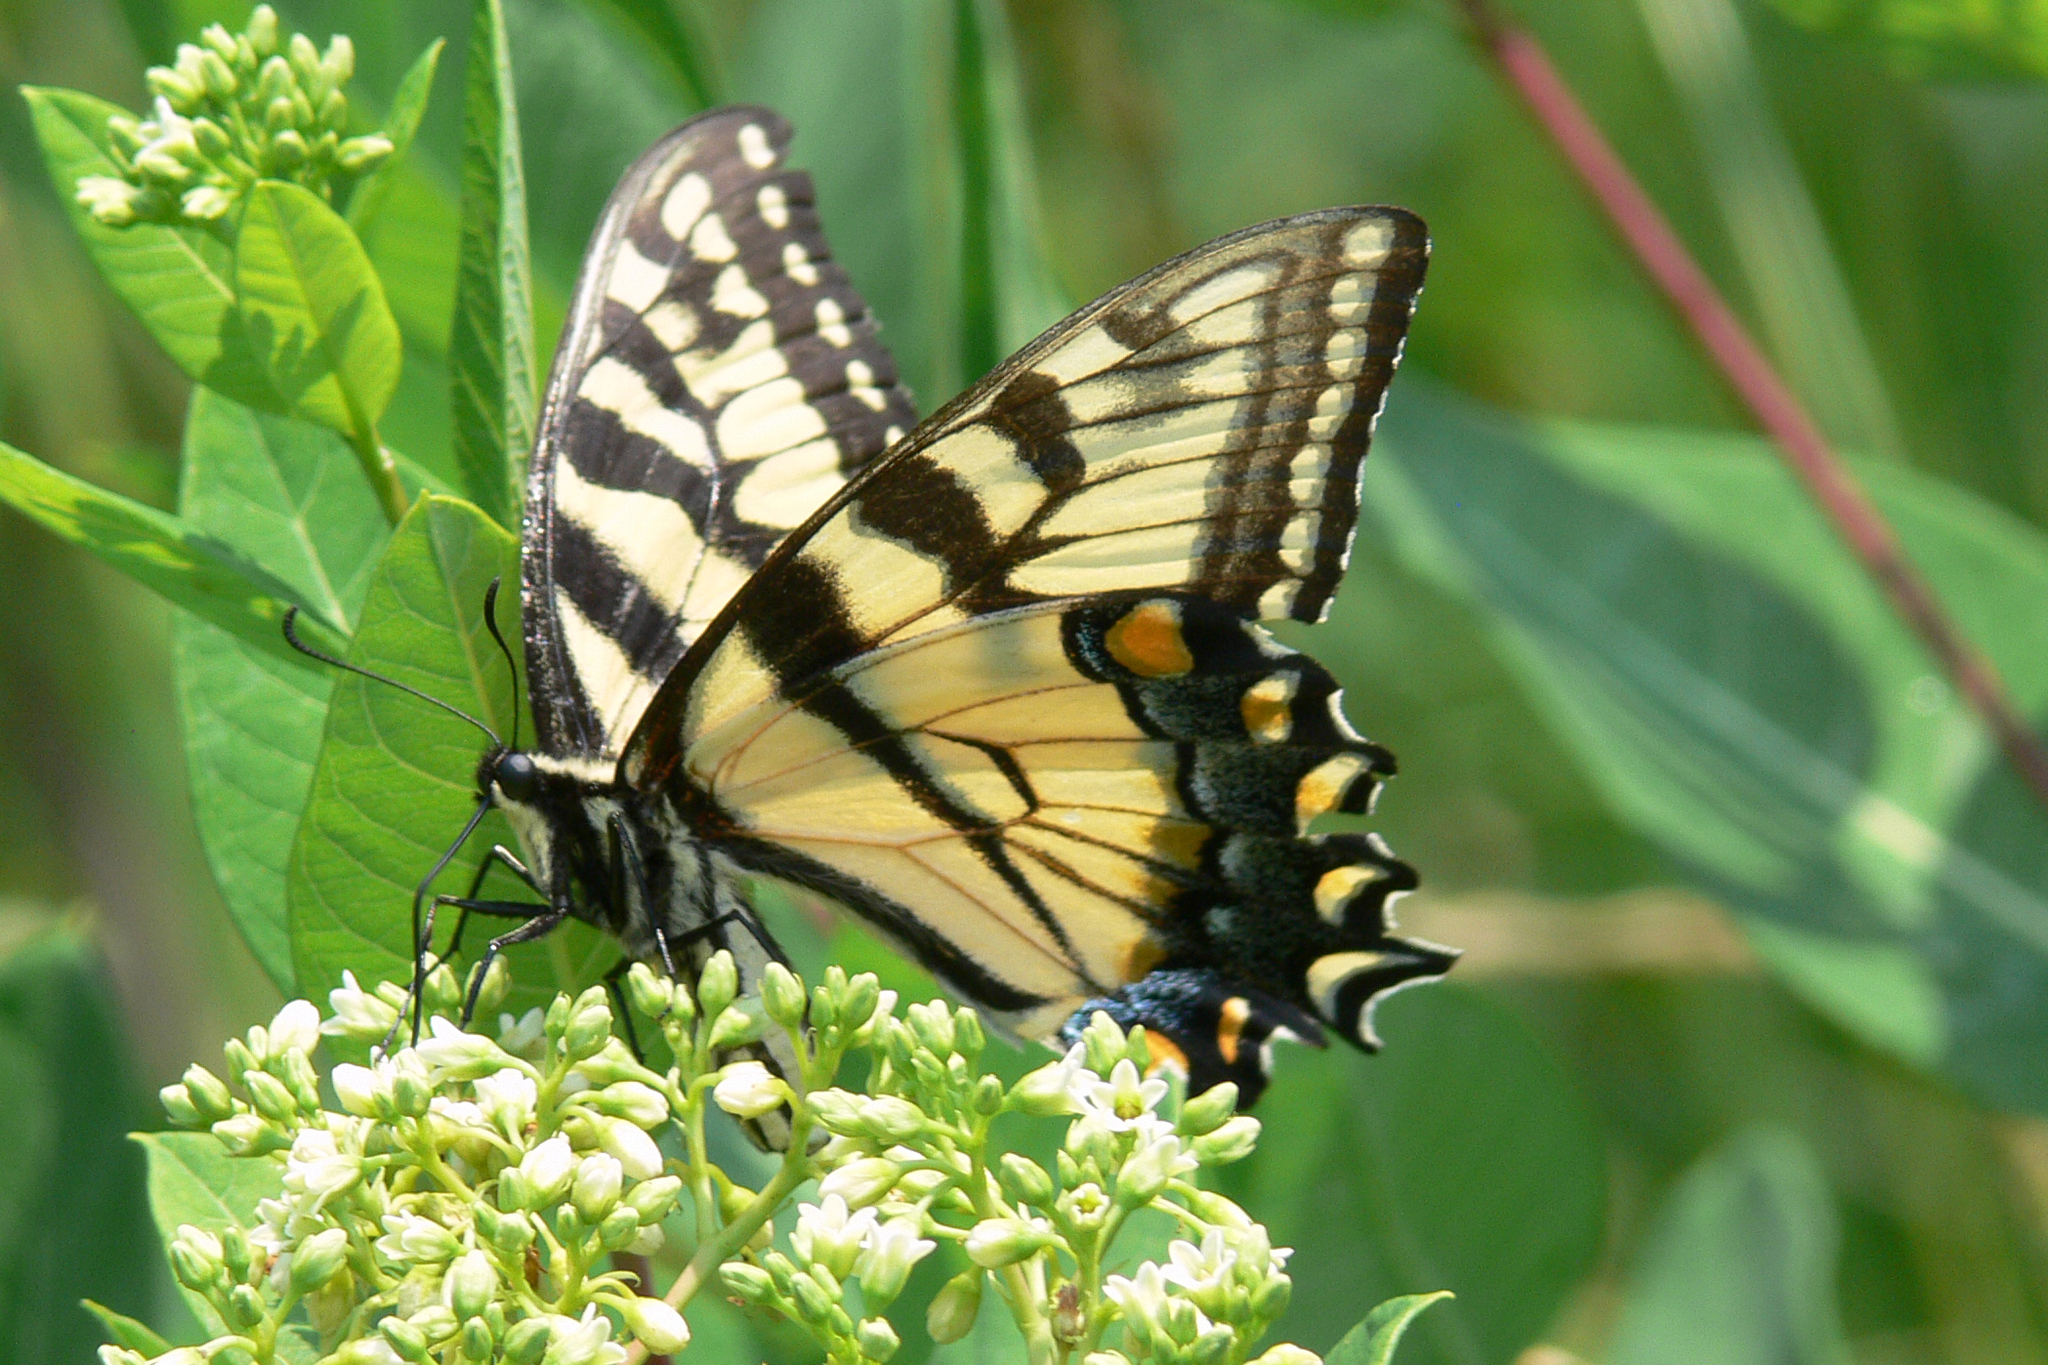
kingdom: Animalia
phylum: Arthropoda
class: Insecta
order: Lepidoptera
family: Papilionidae
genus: Papilio
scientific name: Papilio glaucus
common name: Tiger swallowtail
